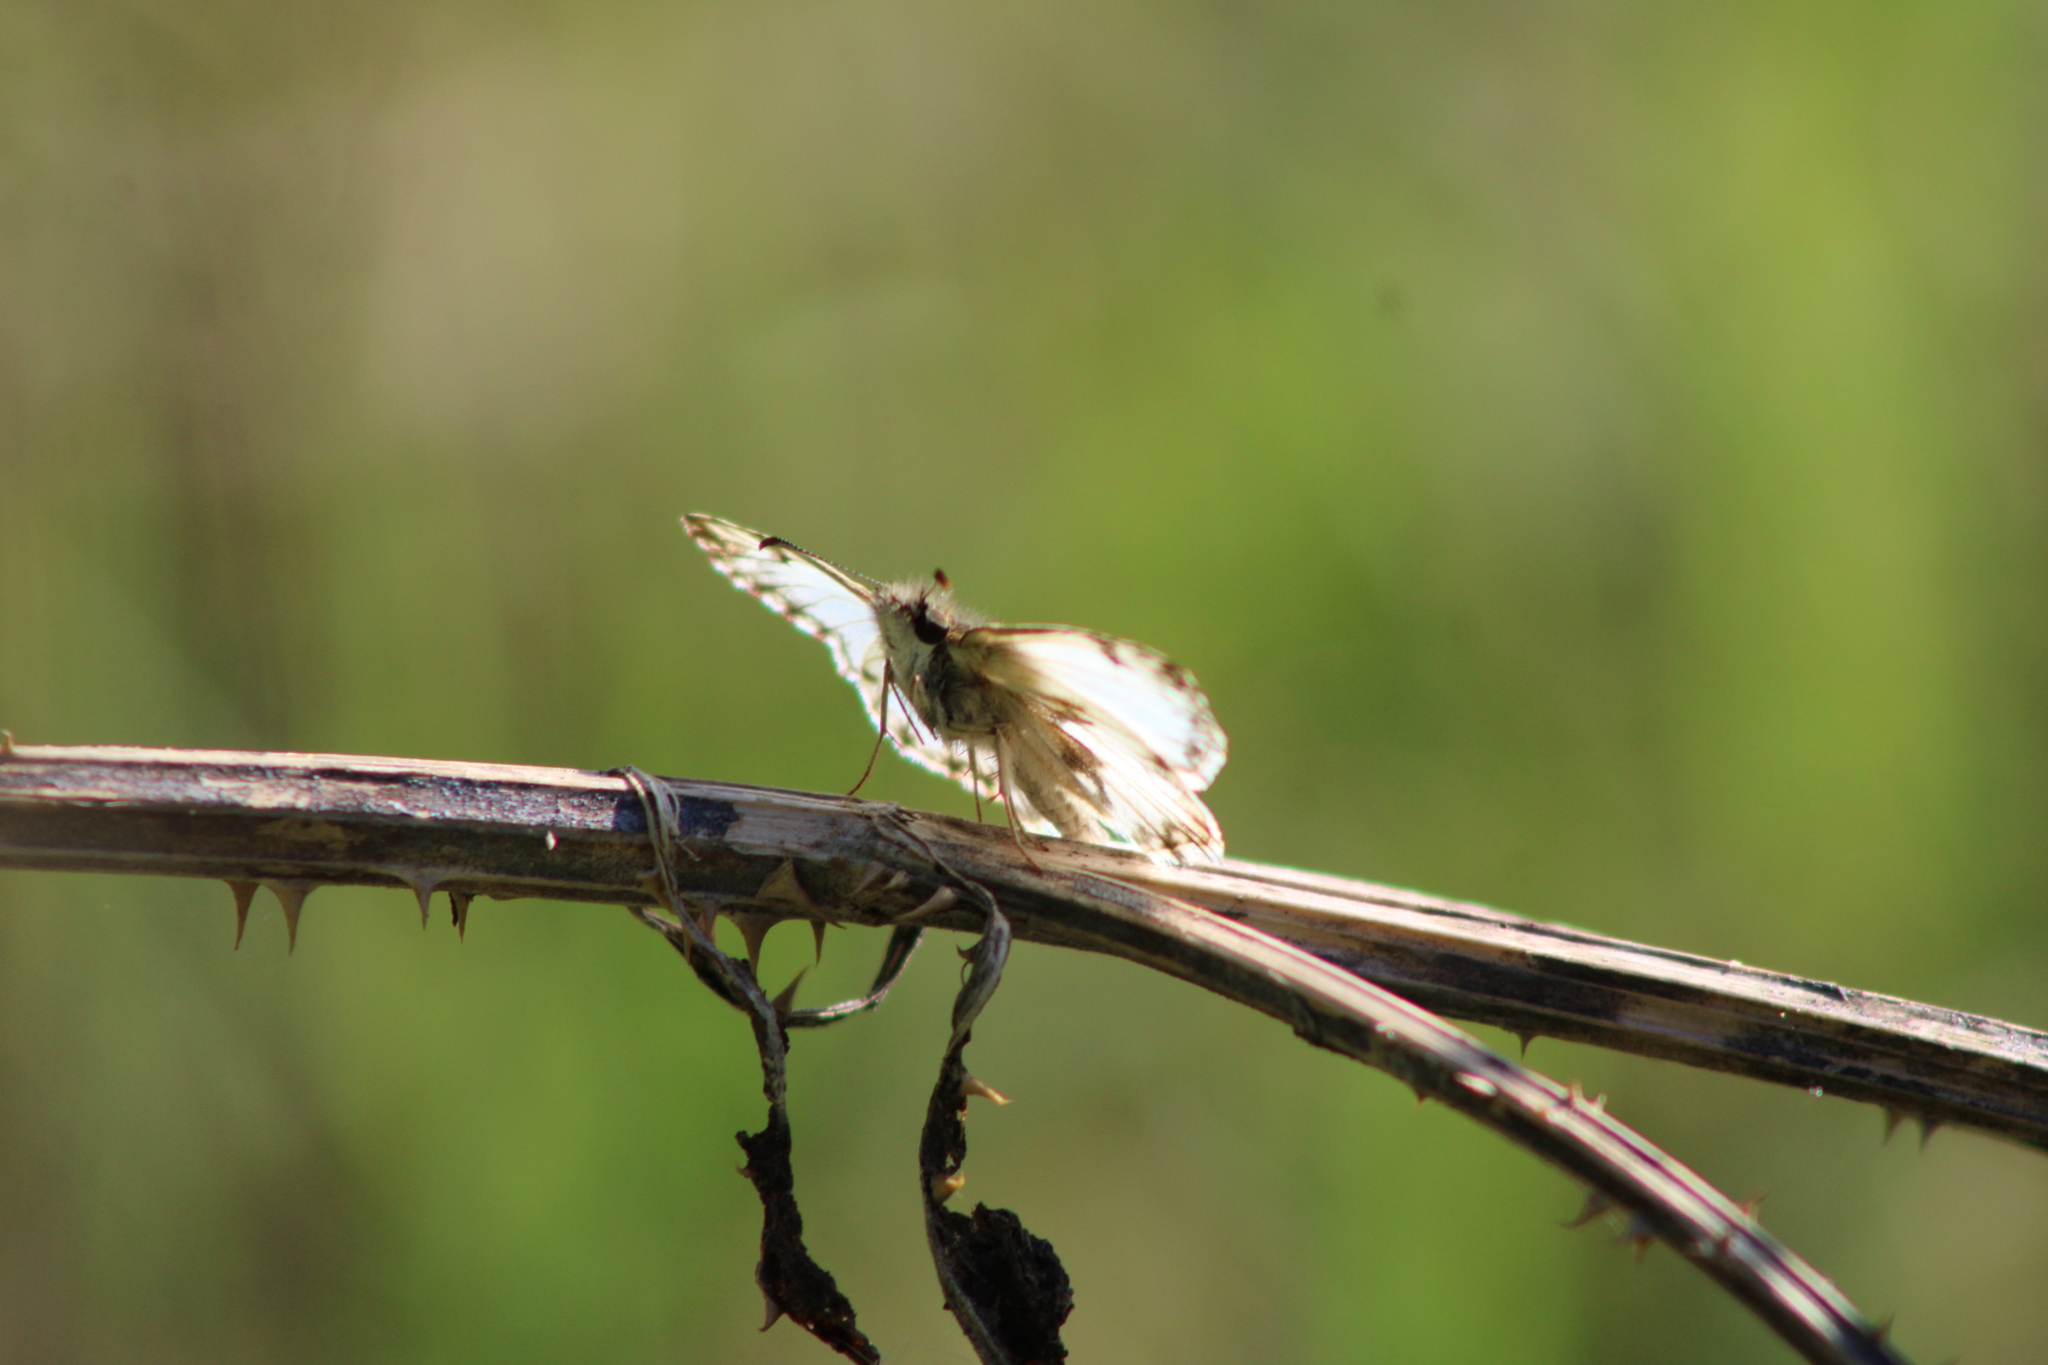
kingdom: Animalia
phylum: Arthropoda
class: Insecta
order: Lepidoptera
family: Hesperiidae
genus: Heliopetes
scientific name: Heliopetes omrina
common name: Stained white-skipper
